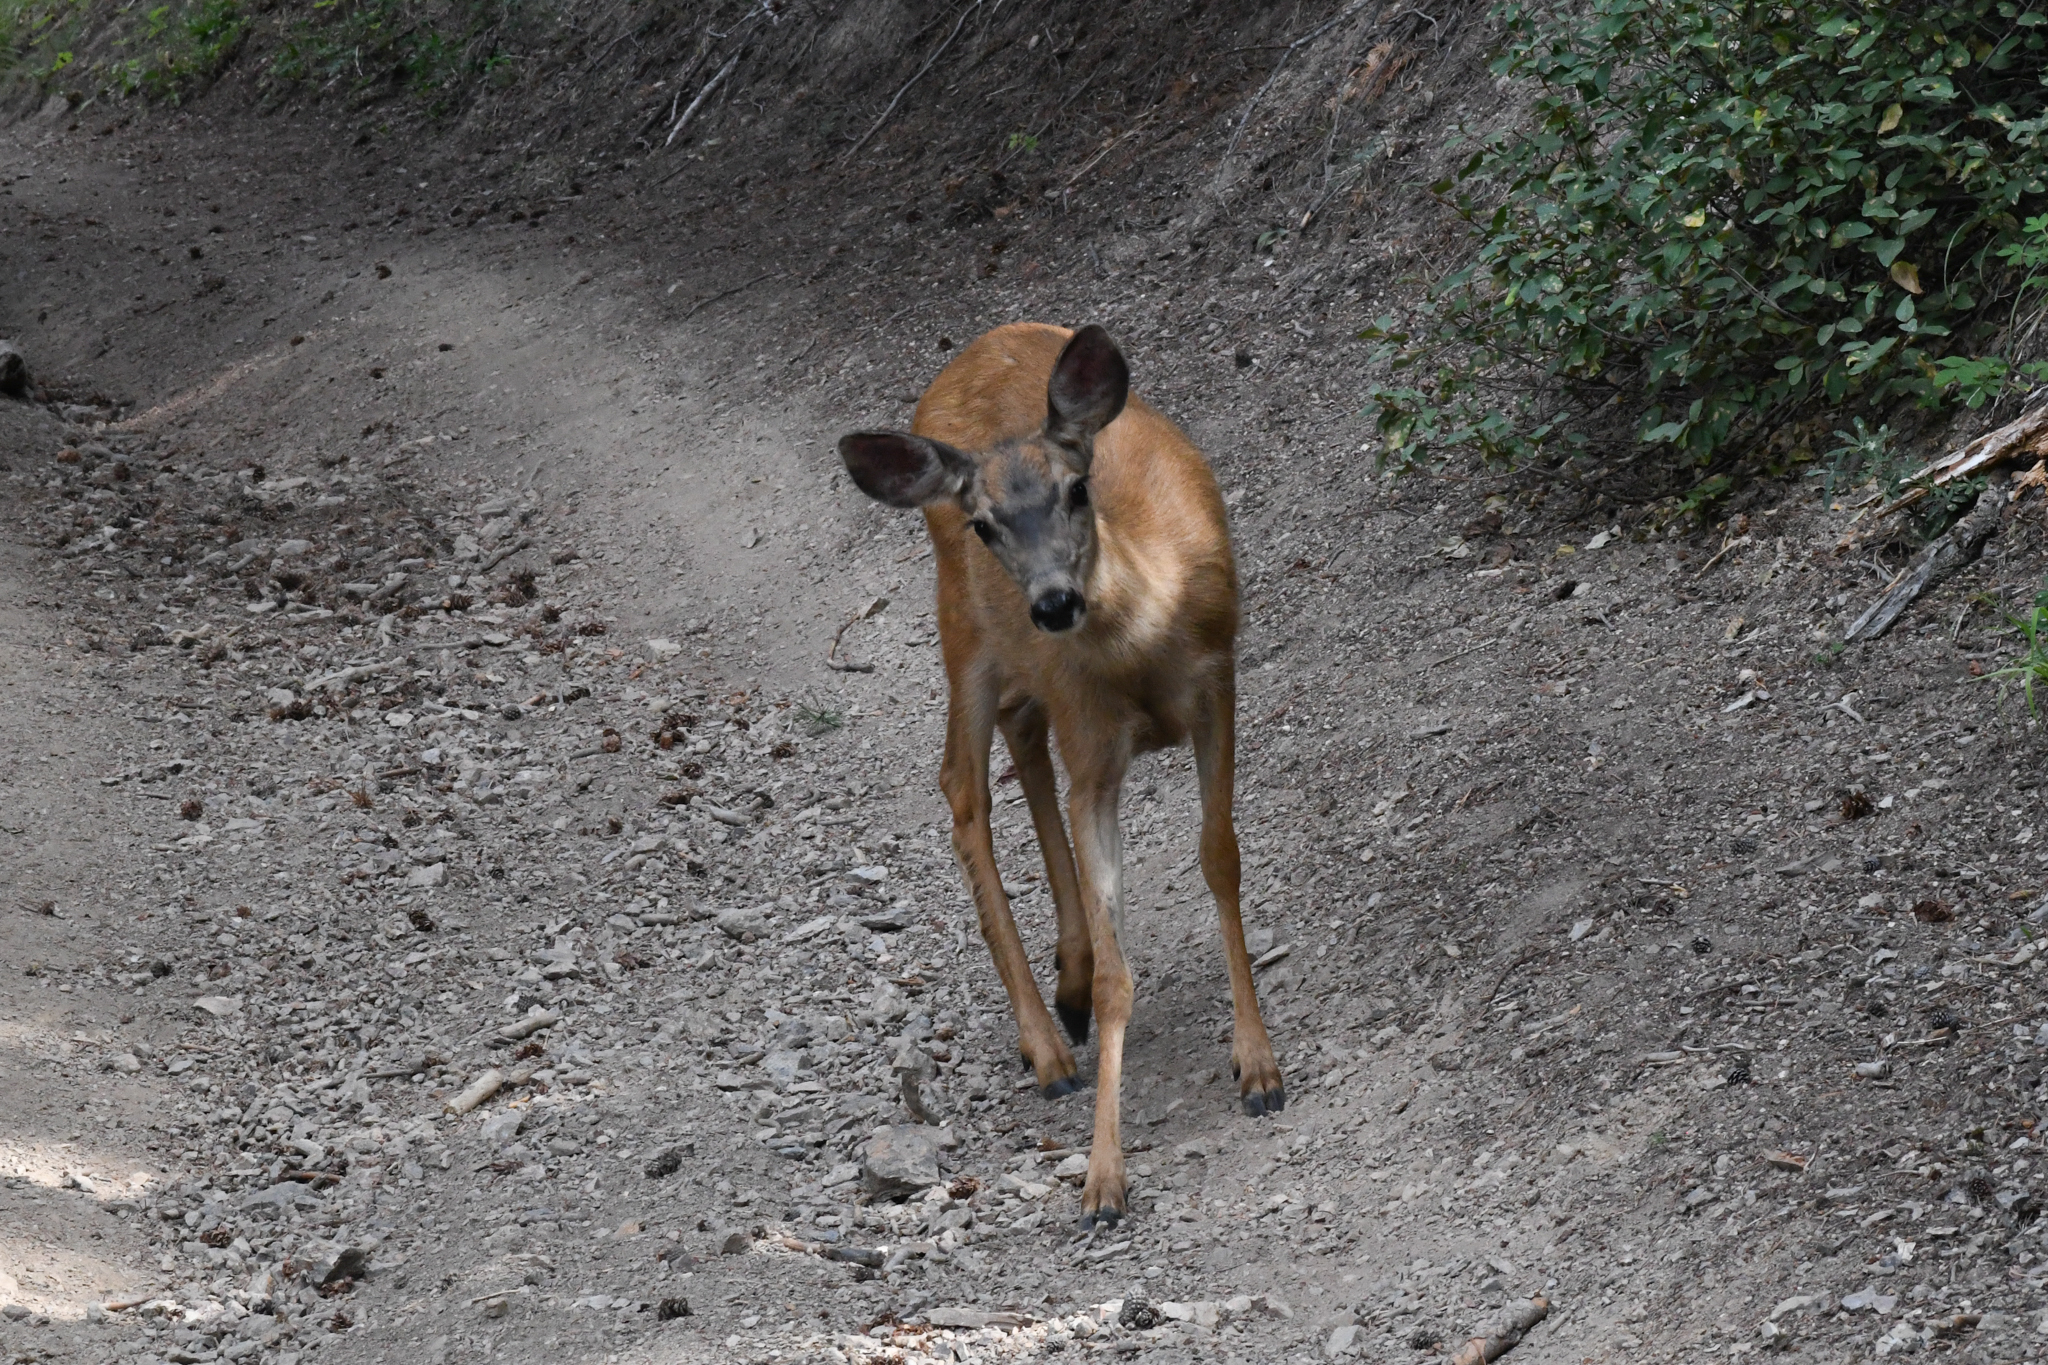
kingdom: Animalia
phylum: Chordata
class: Mammalia
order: Artiodactyla
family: Cervidae
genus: Odocoileus
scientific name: Odocoileus hemionus
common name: Mule deer
